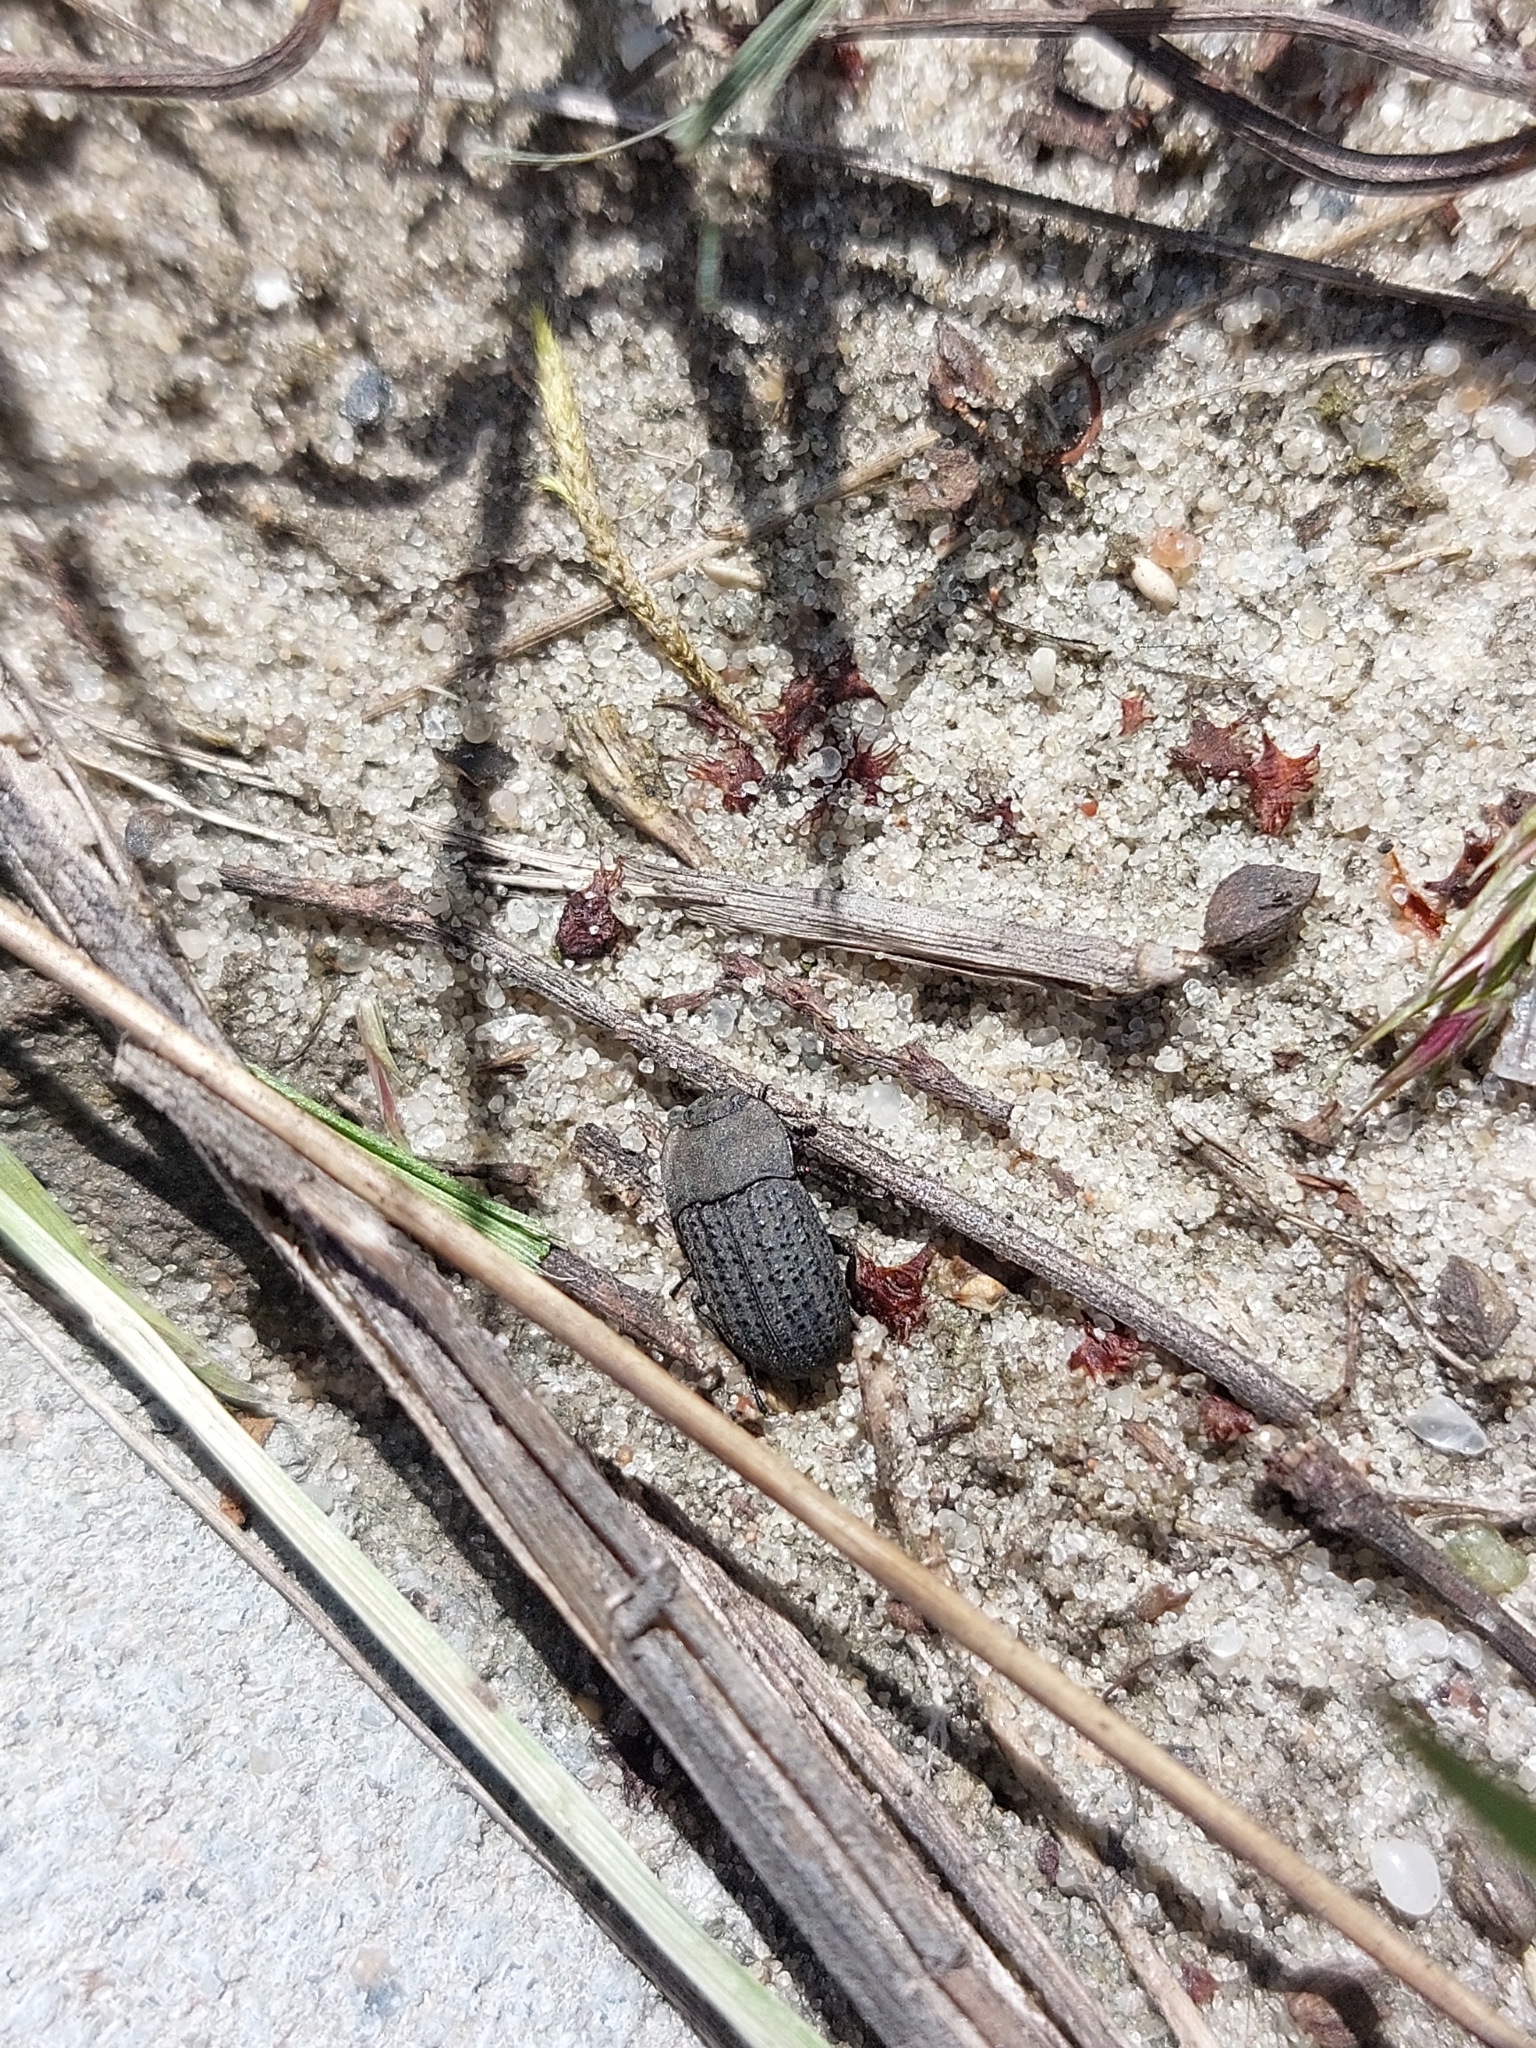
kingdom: Animalia
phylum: Arthropoda
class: Insecta
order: Coleoptera
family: Tenebrionidae
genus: Opatrum
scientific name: Opatrum sabulosum
